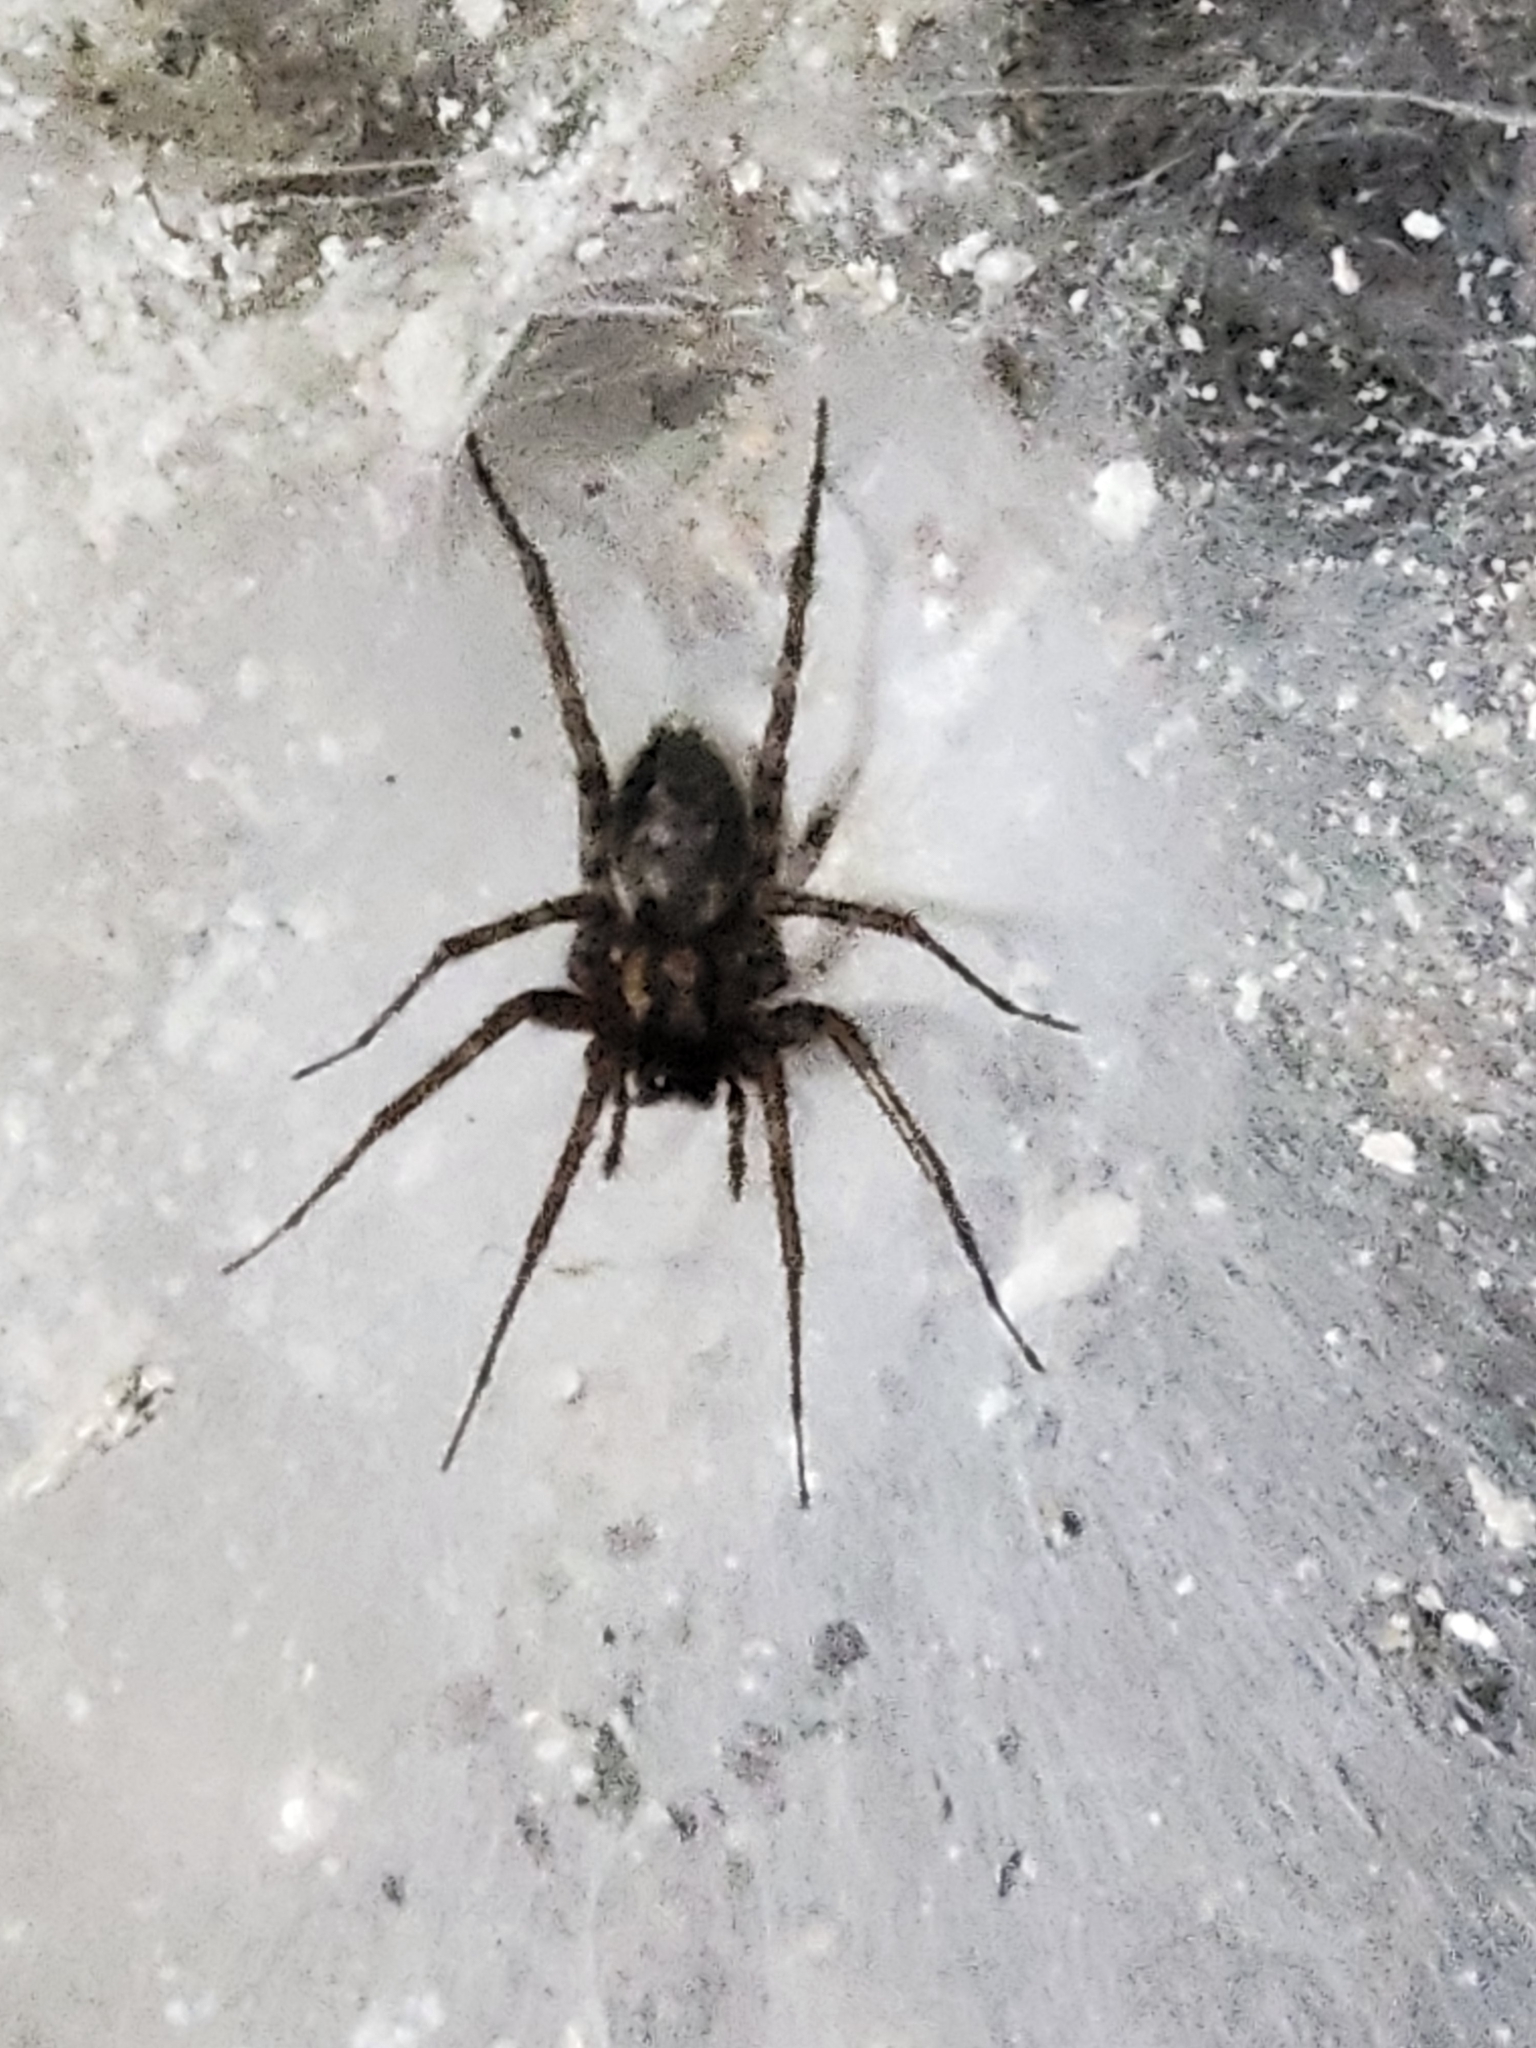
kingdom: Animalia
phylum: Arthropoda
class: Arachnida
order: Araneae
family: Agelenidae
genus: Tegenaria
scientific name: Tegenaria domestica
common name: Barn funnel weaver
